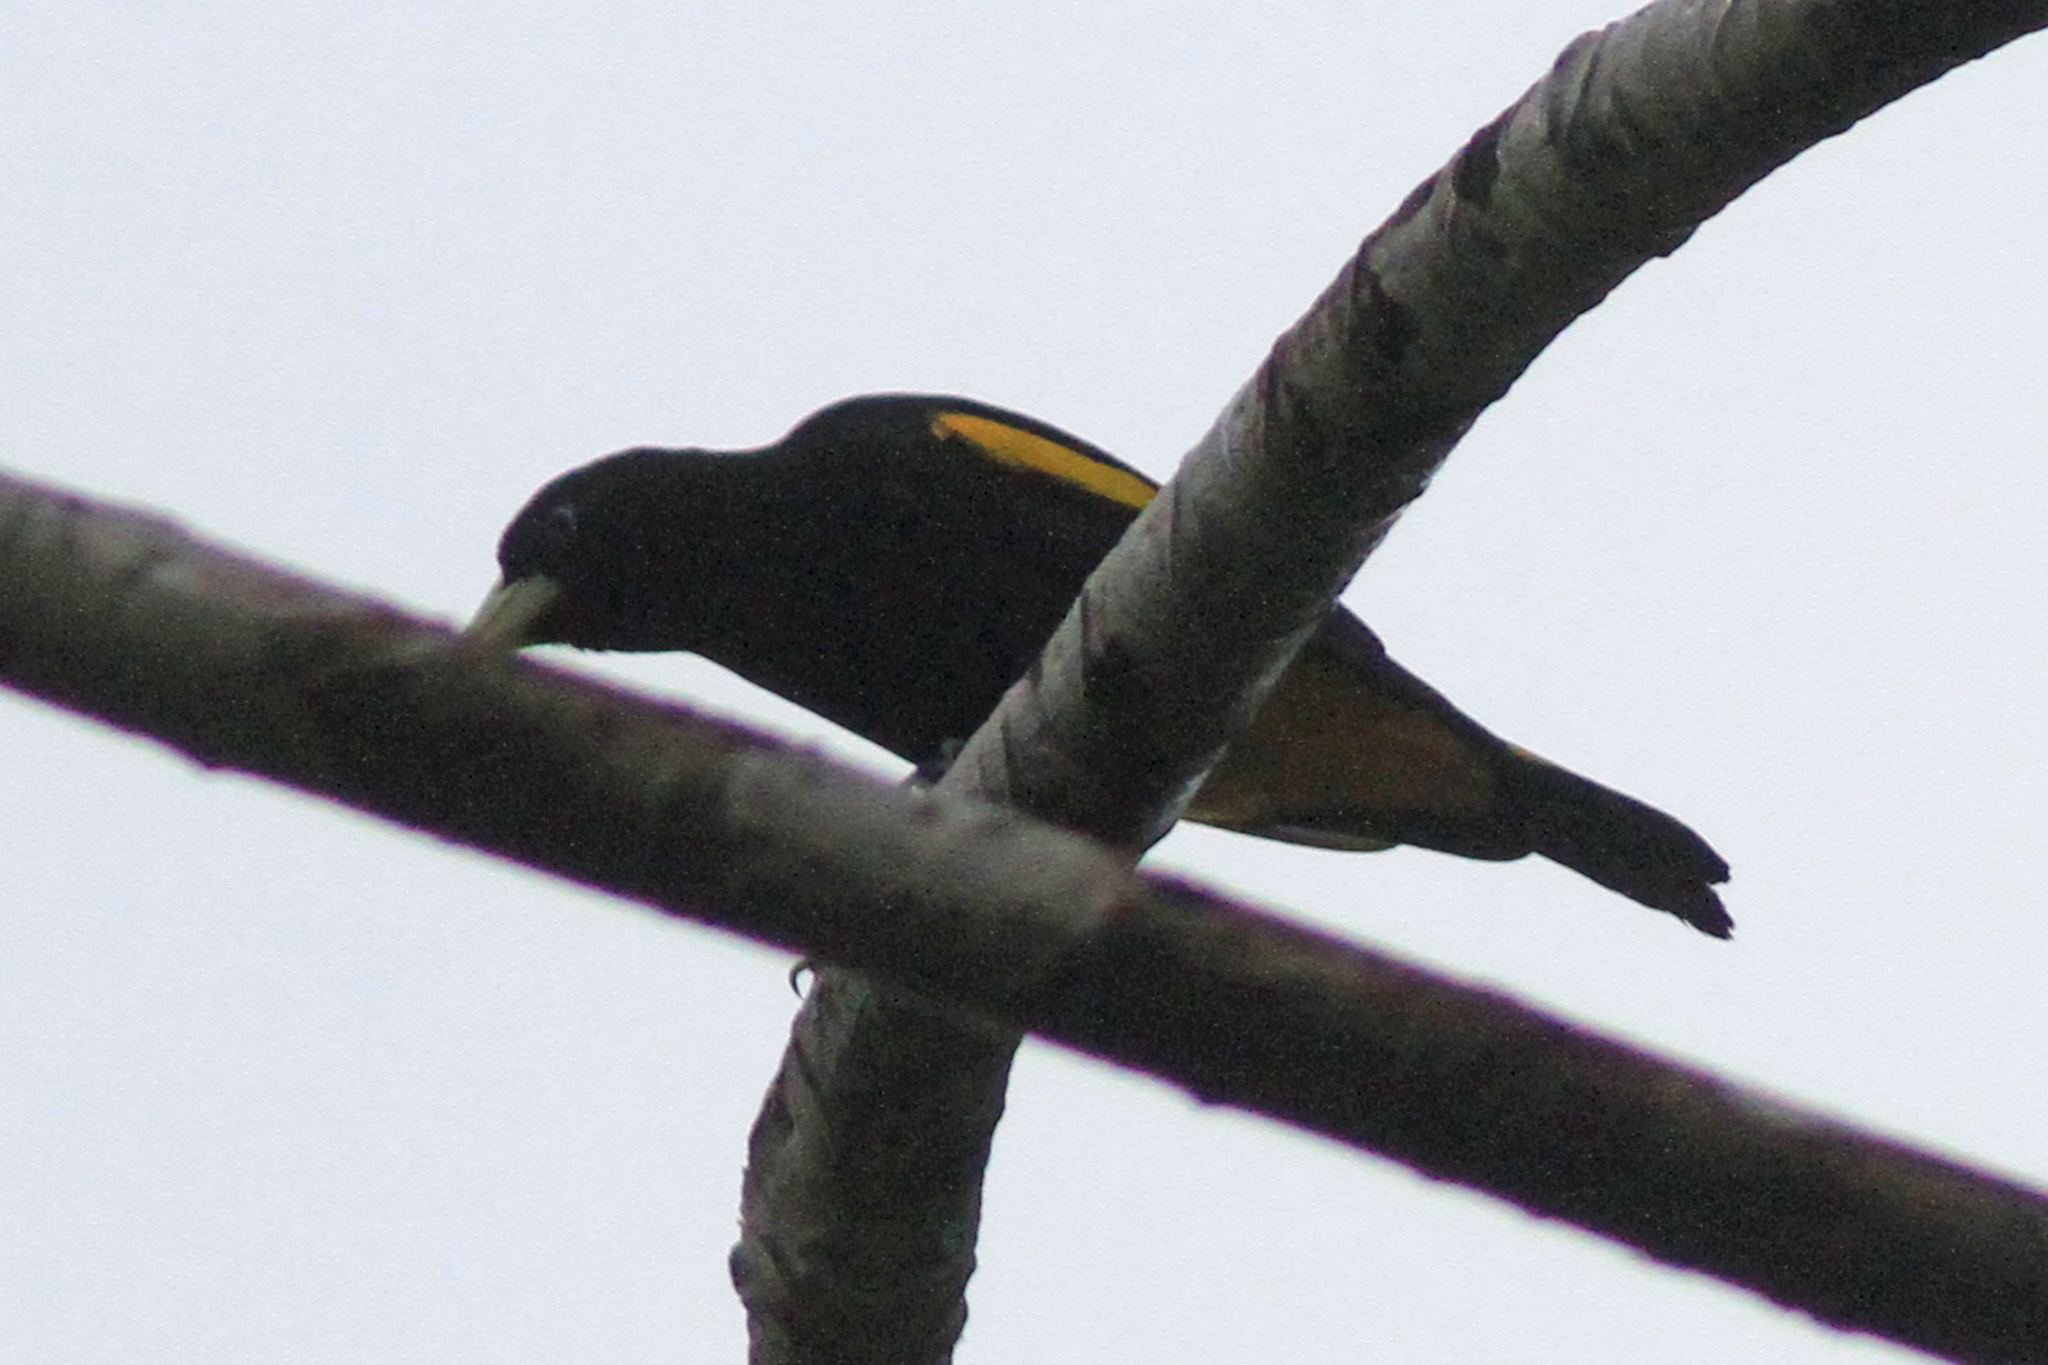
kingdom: Animalia
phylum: Chordata
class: Aves
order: Passeriformes
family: Icteridae
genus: Cacicus
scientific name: Cacicus cela
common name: Yellow-rumped cacique
